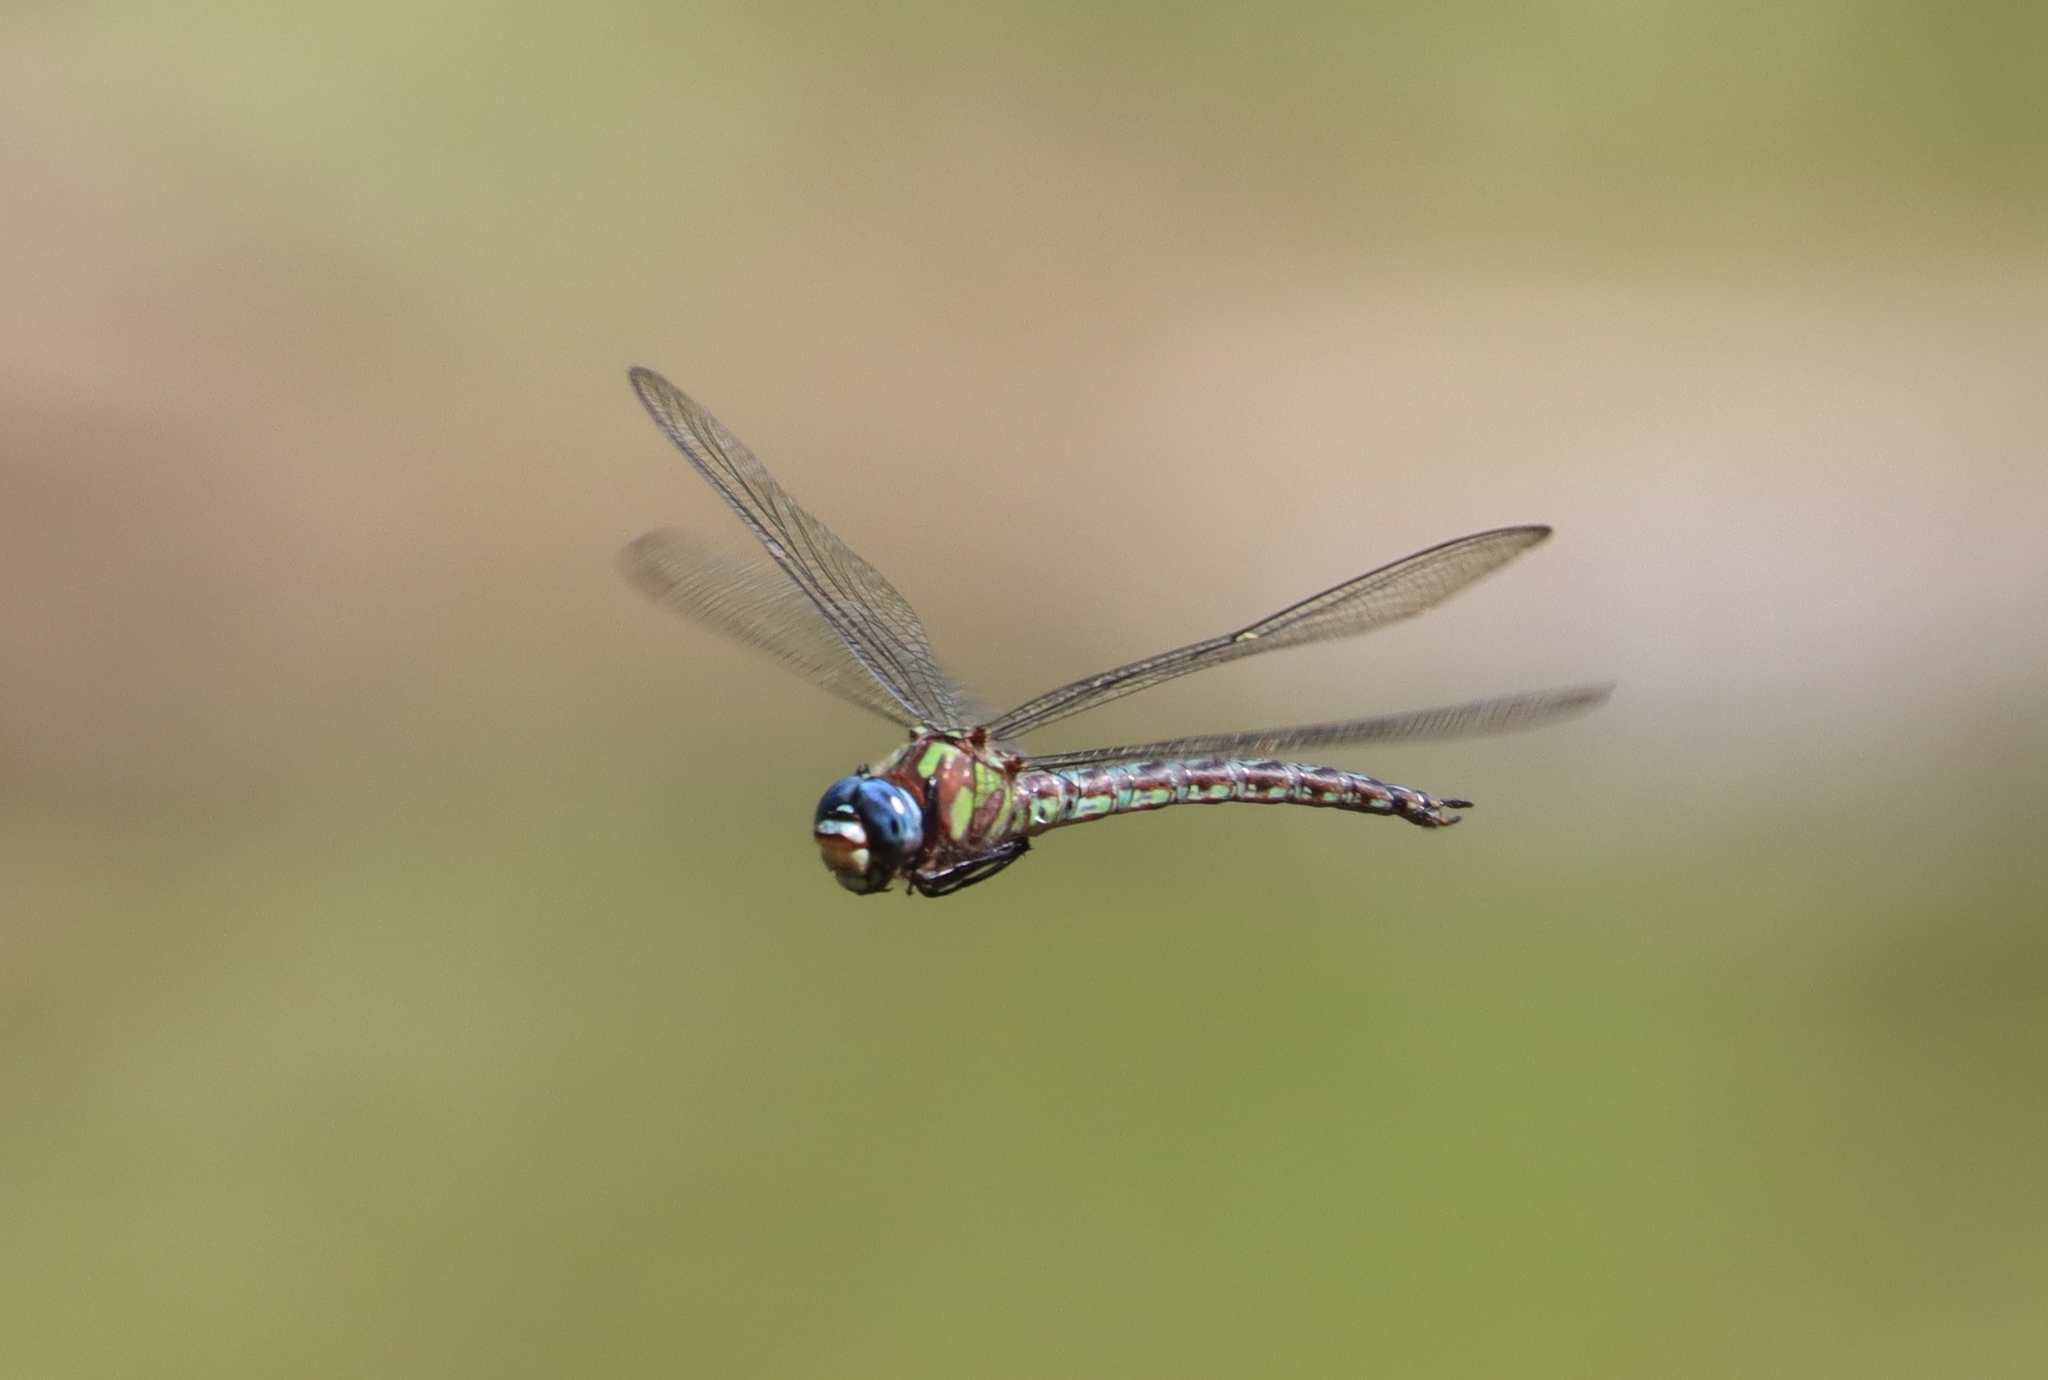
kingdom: Animalia
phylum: Arthropoda
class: Insecta
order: Odonata
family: Aeshnidae
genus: Nasiaeschna
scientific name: Nasiaeschna pentacantha
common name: Cyrano darner
